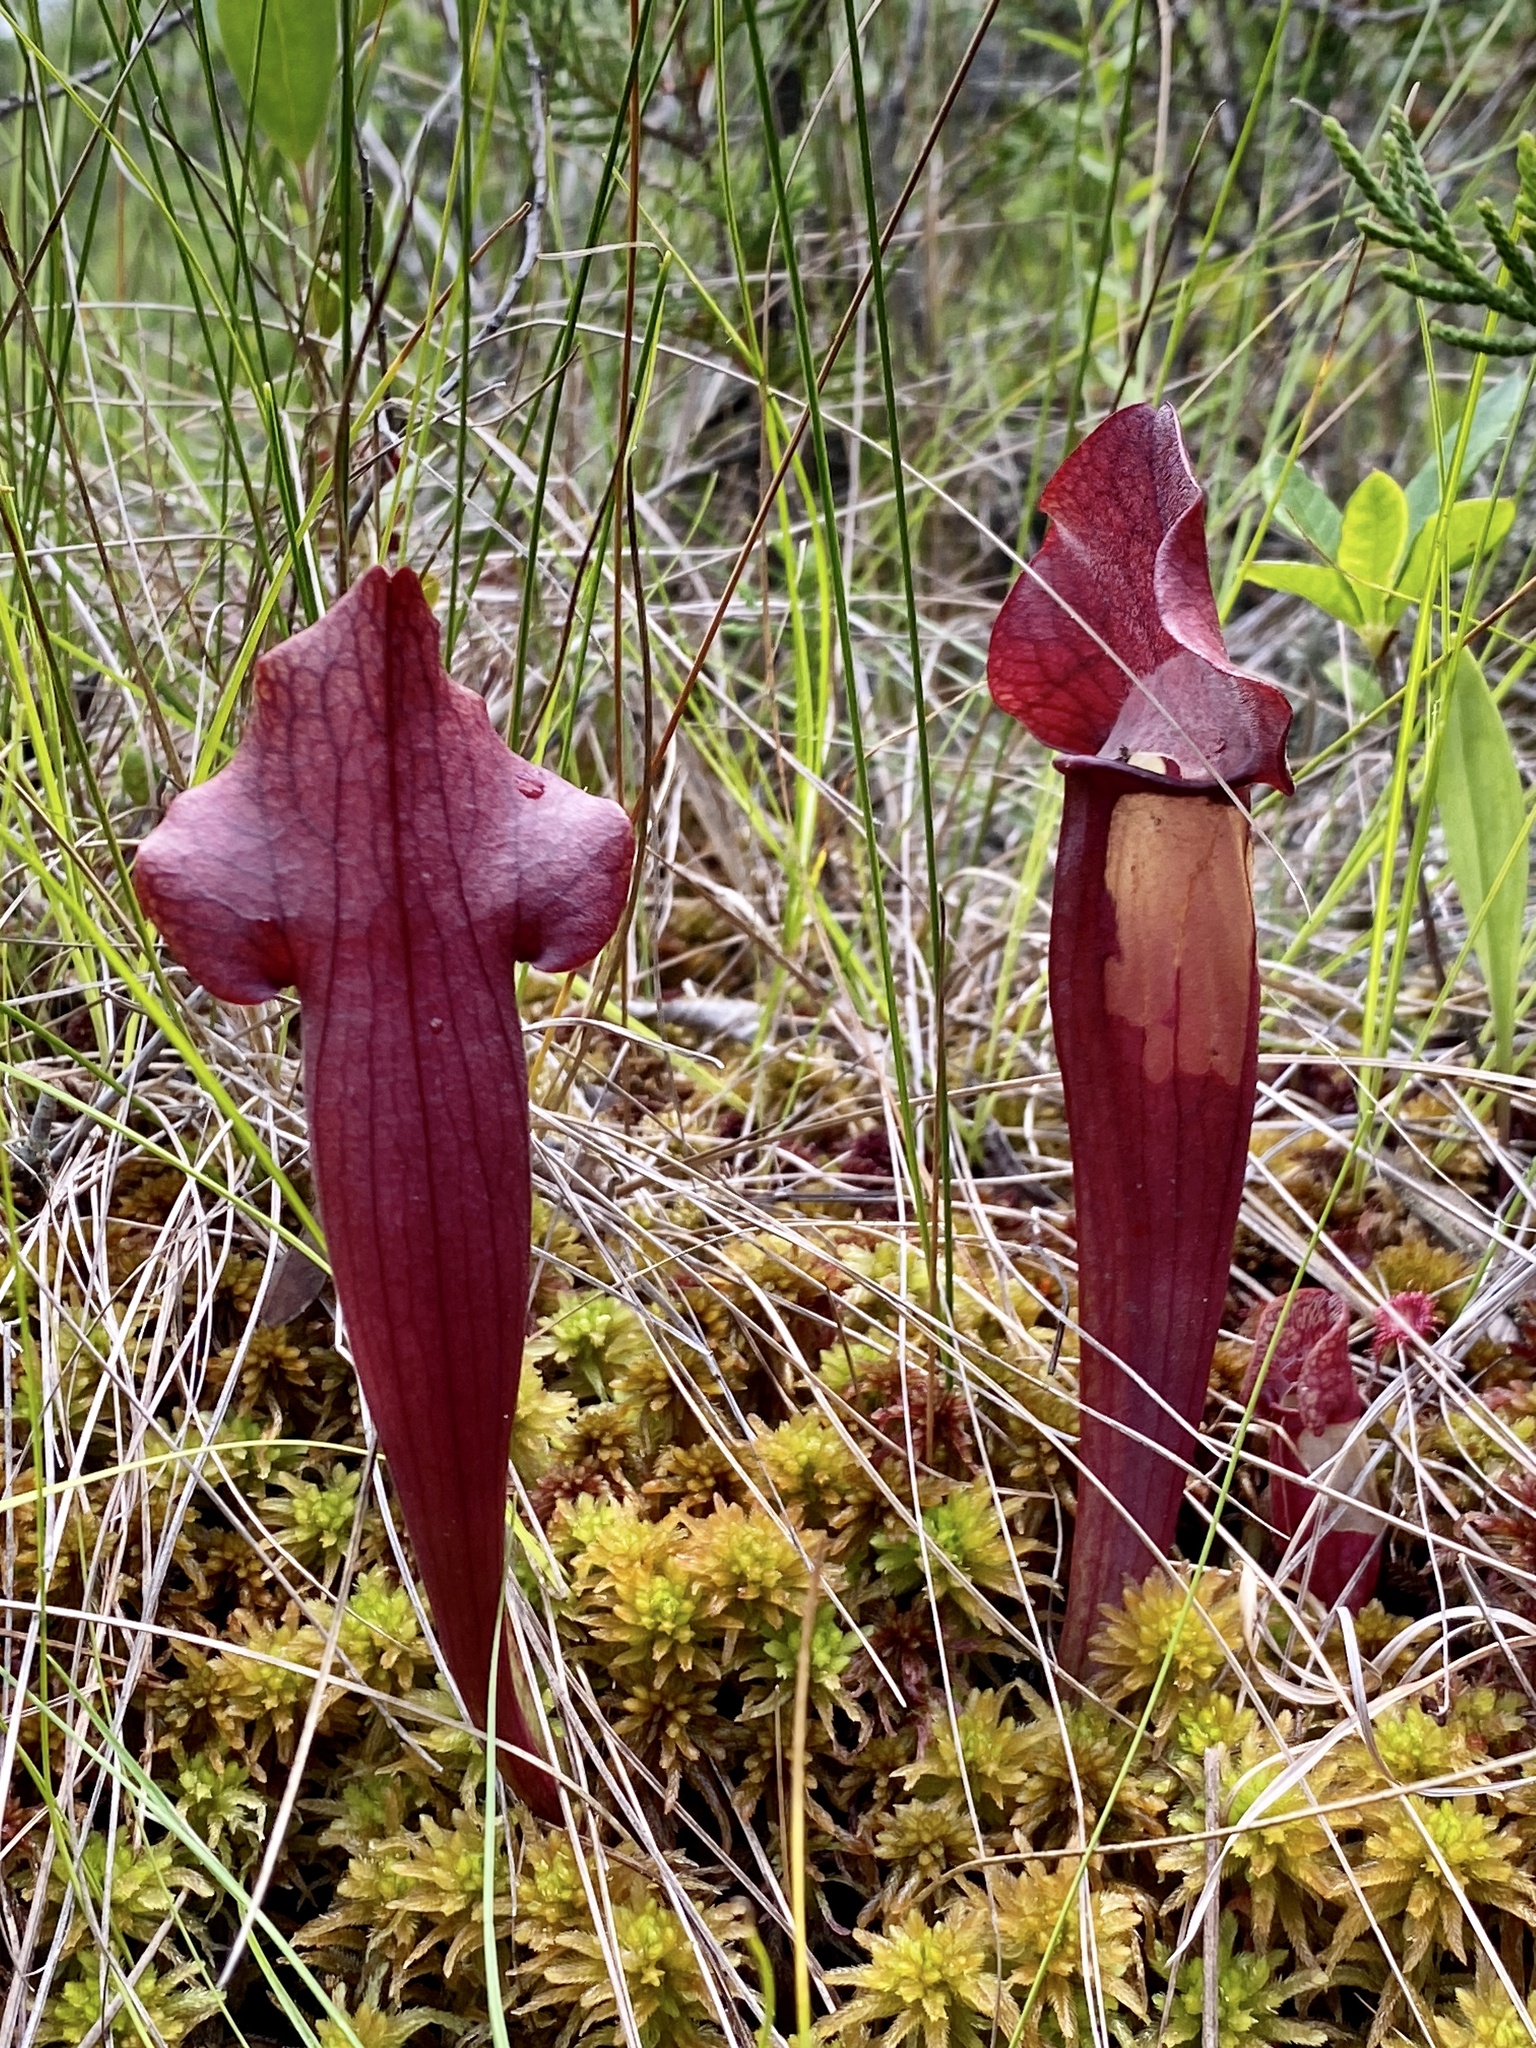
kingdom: Plantae
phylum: Tracheophyta
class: Magnoliopsida
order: Ericales
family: Sarraceniaceae
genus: Sarracenia
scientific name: Sarracenia chelsonii
